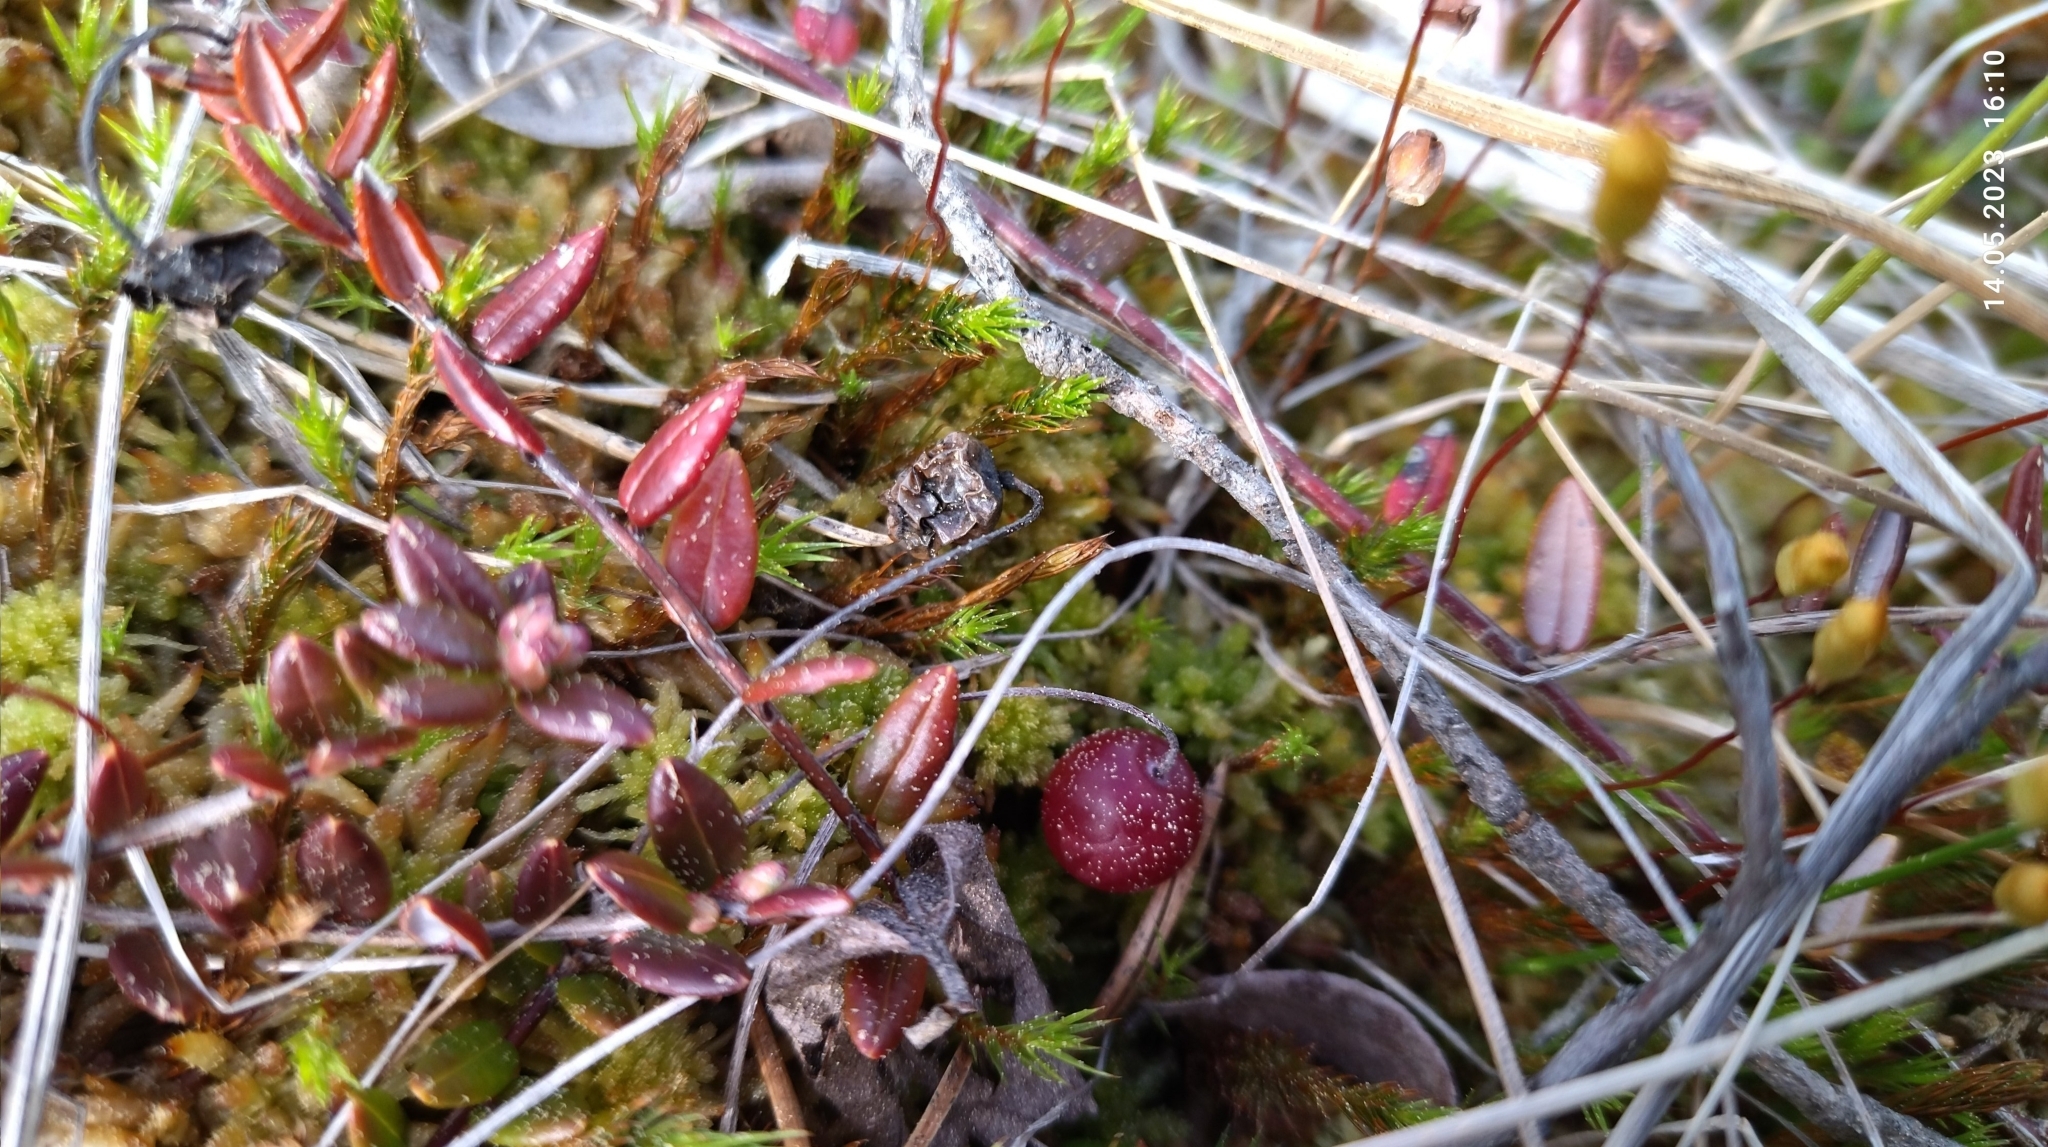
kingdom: Plantae
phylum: Tracheophyta
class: Magnoliopsida
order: Ericales
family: Ericaceae
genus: Vaccinium
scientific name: Vaccinium oxycoccos
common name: Cranberry
